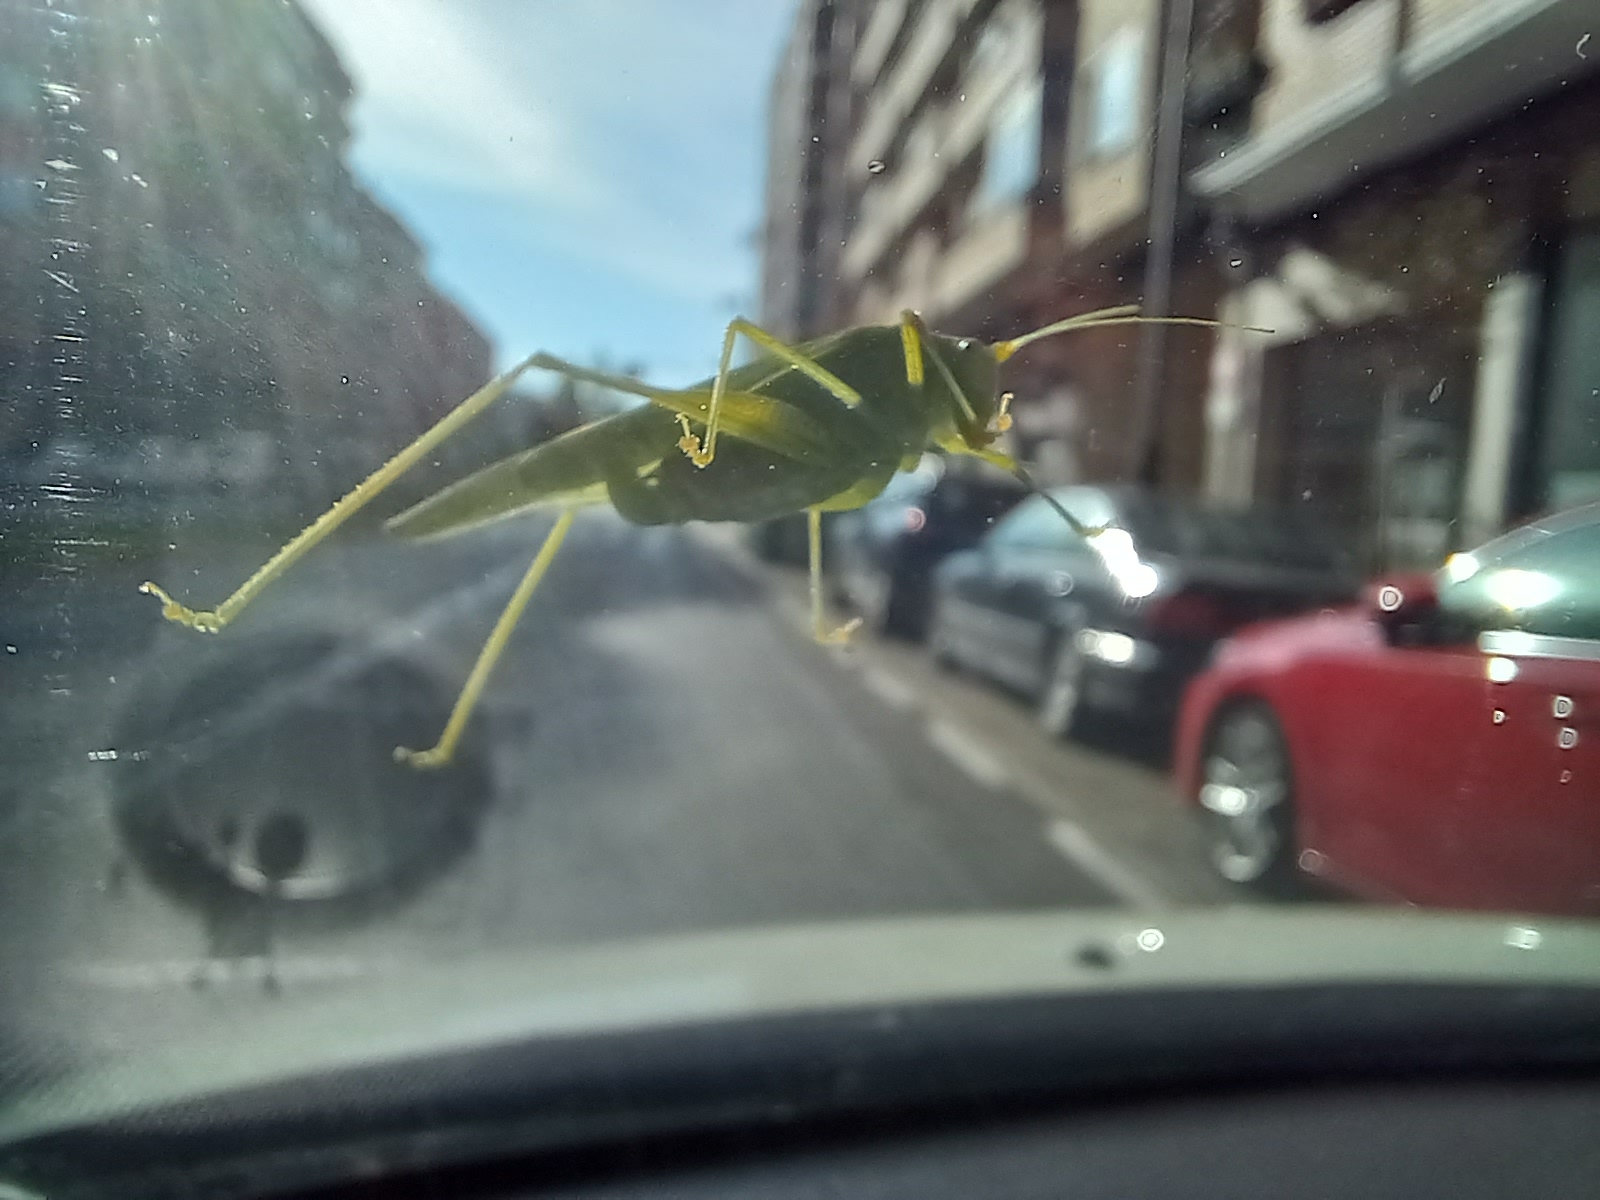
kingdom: Animalia
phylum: Arthropoda
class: Insecta
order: Orthoptera
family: Tettigoniidae
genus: Phaneroptera
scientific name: Phaneroptera nana
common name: Southern sickle bush-cricket
